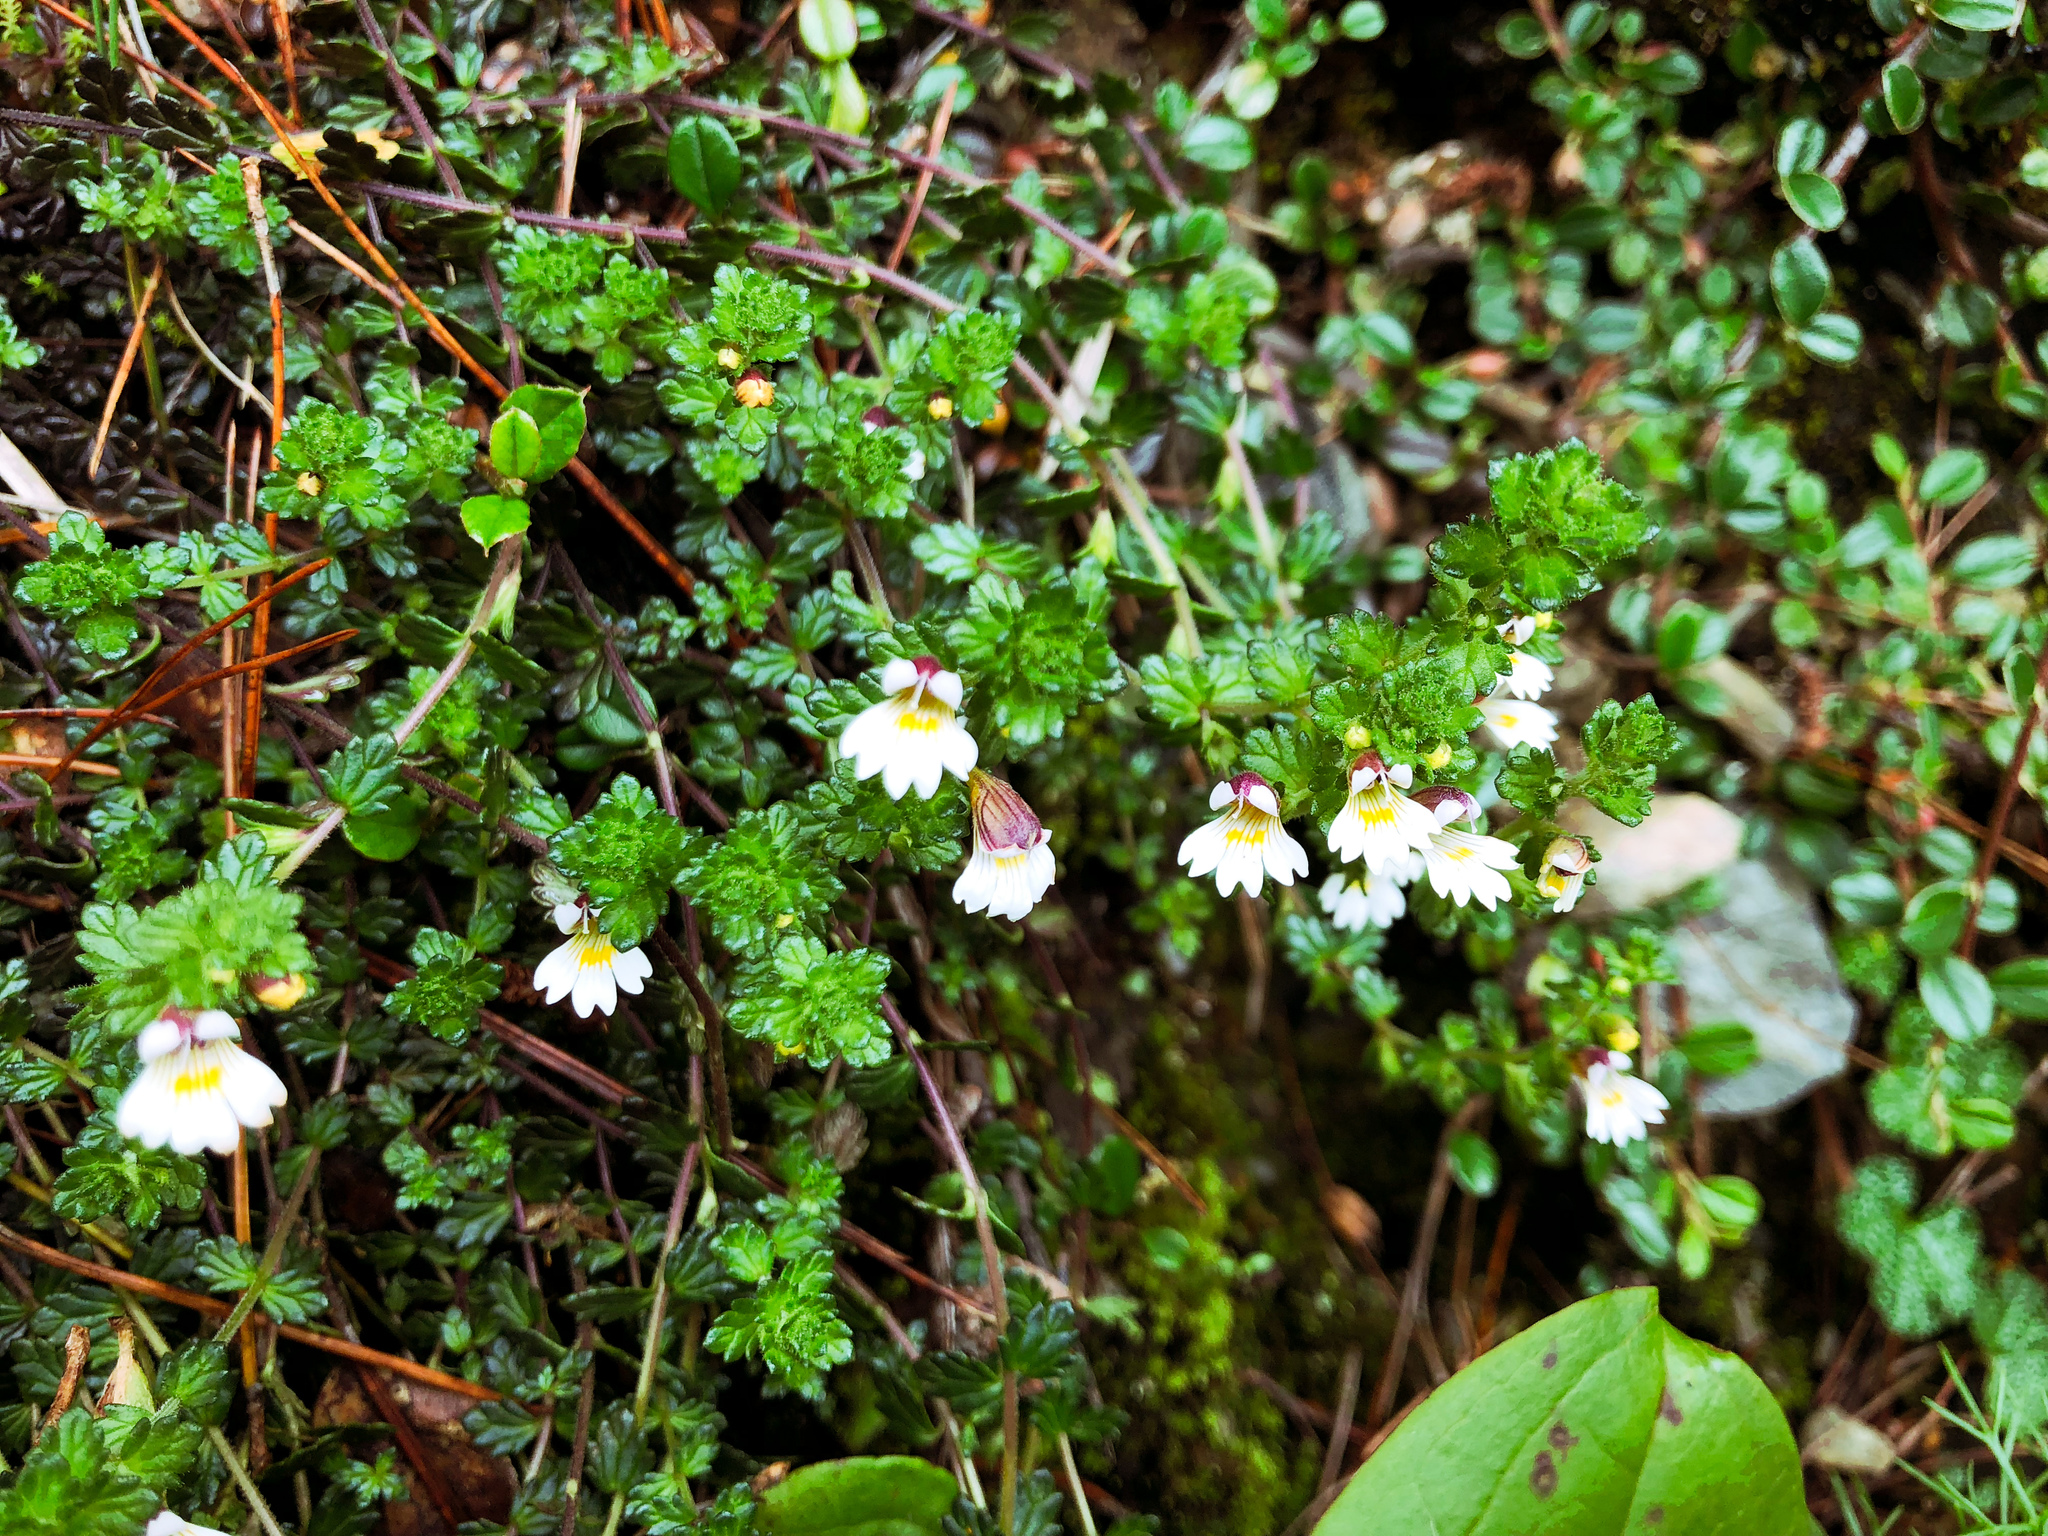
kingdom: Plantae
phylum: Tracheophyta
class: Magnoliopsida
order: Lamiales
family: Orobanchaceae
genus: Euphrasia
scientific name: Euphrasia transmorrisonensis
